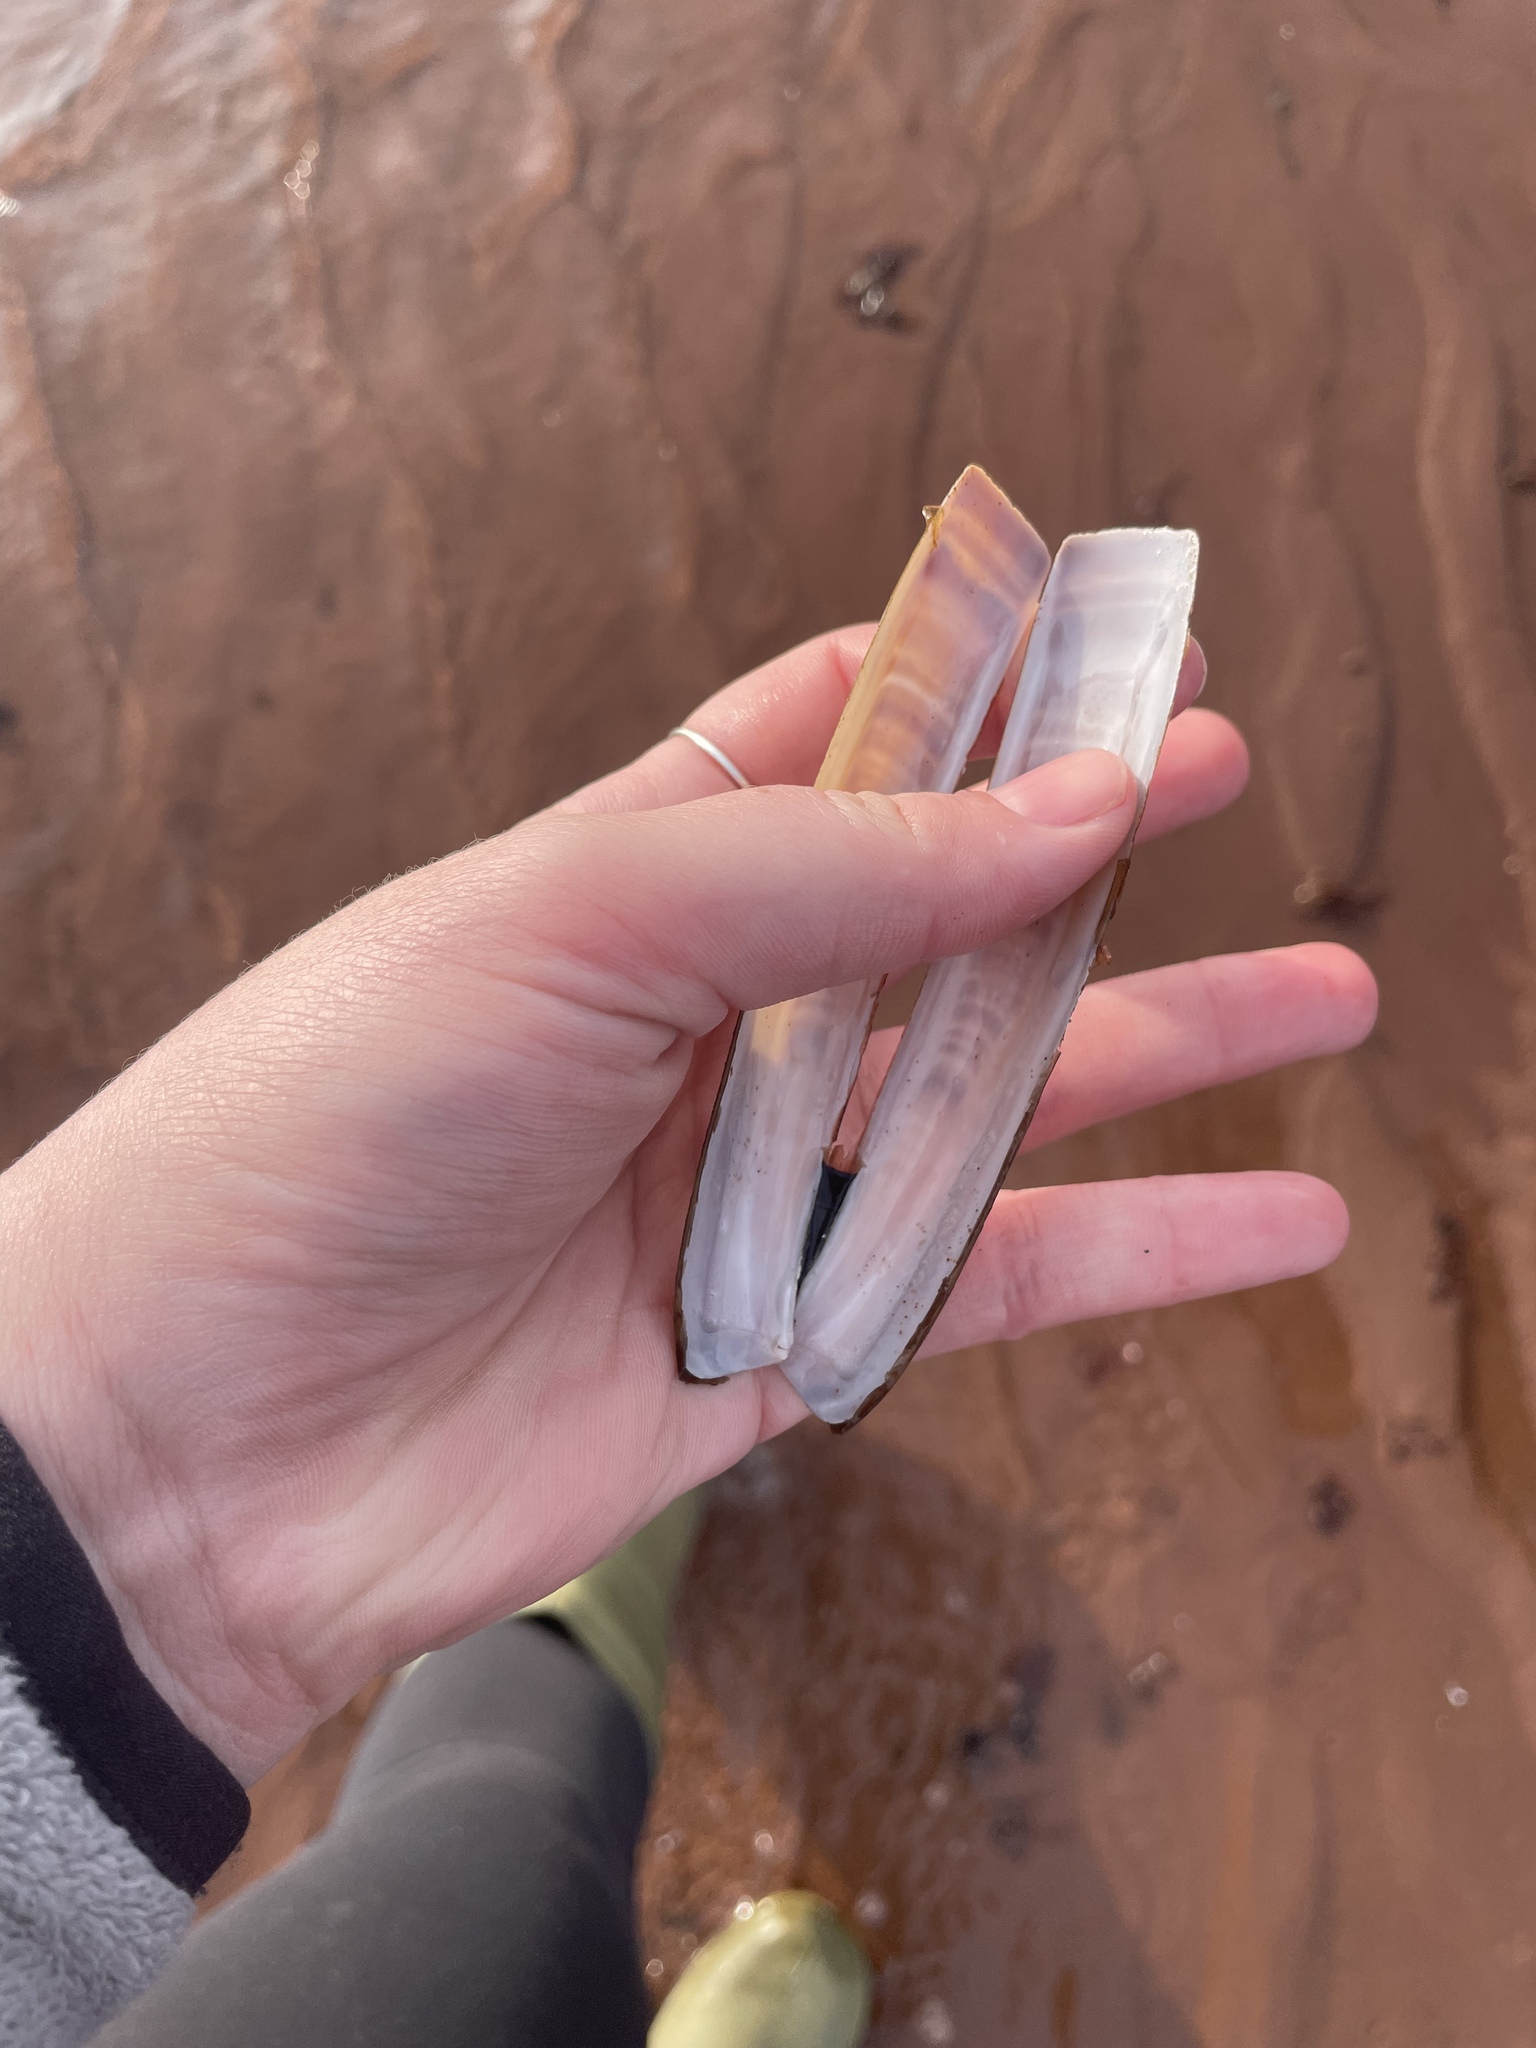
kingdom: Animalia
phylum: Mollusca
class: Bivalvia
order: Adapedonta
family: Pharidae
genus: Ensis
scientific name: Ensis leei
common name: American jack knife clam
